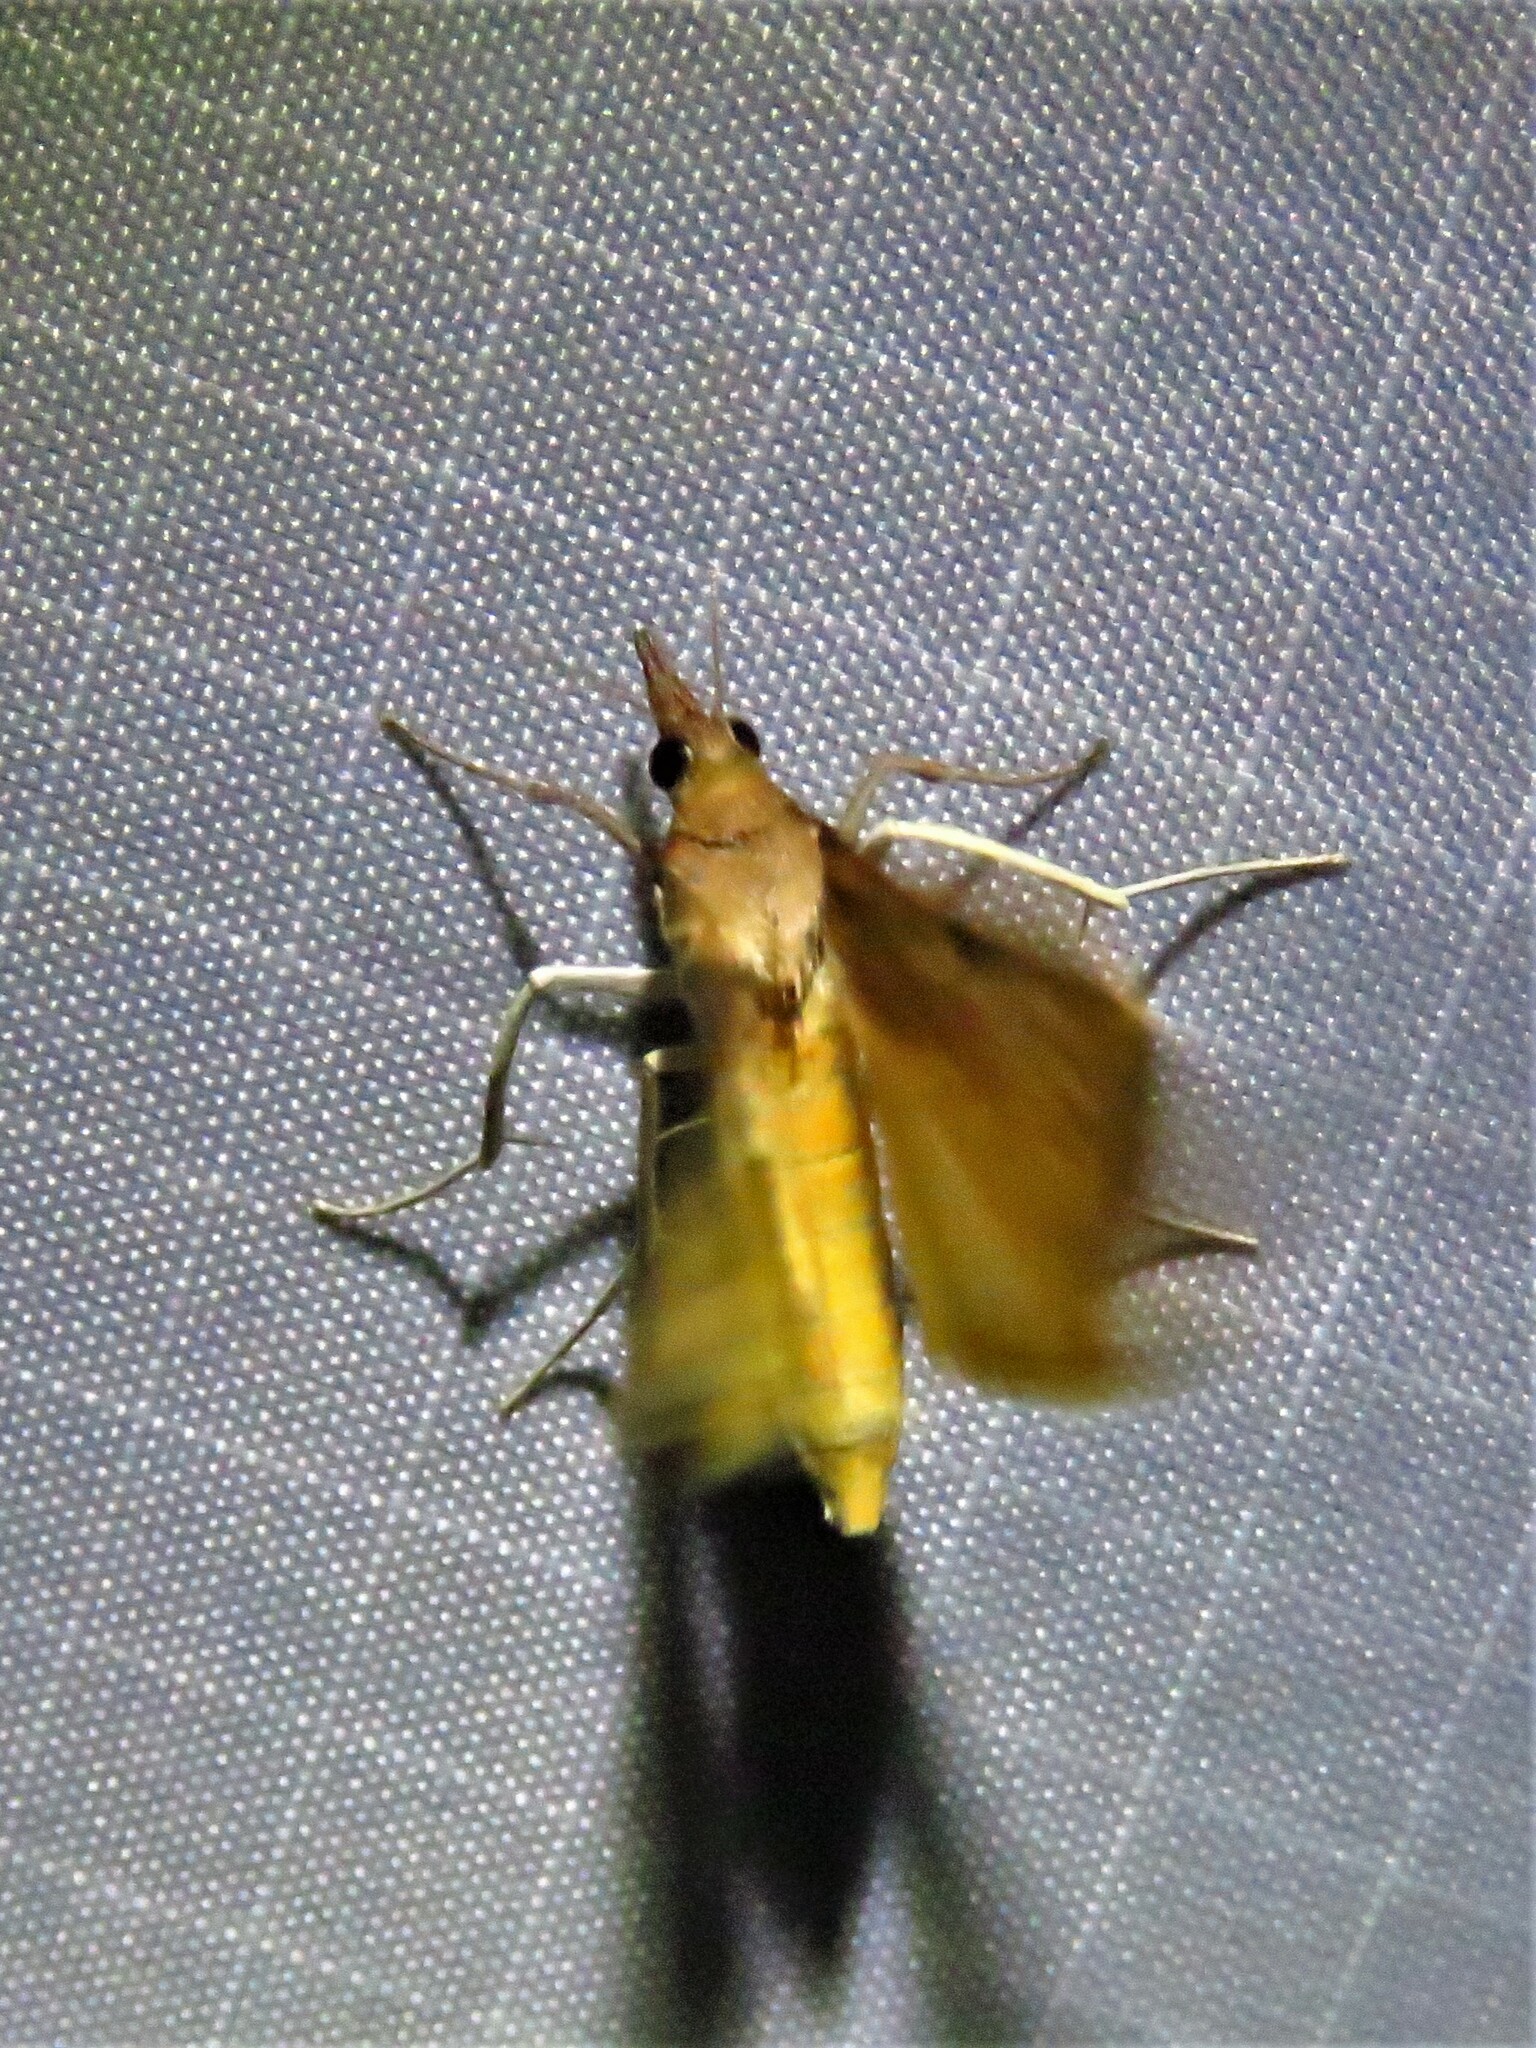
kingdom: Animalia
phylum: Arthropoda
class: Insecta
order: Lepidoptera
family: Crambidae
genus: Uresiphita
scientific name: Uresiphita reversalis
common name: Genista broom moth
